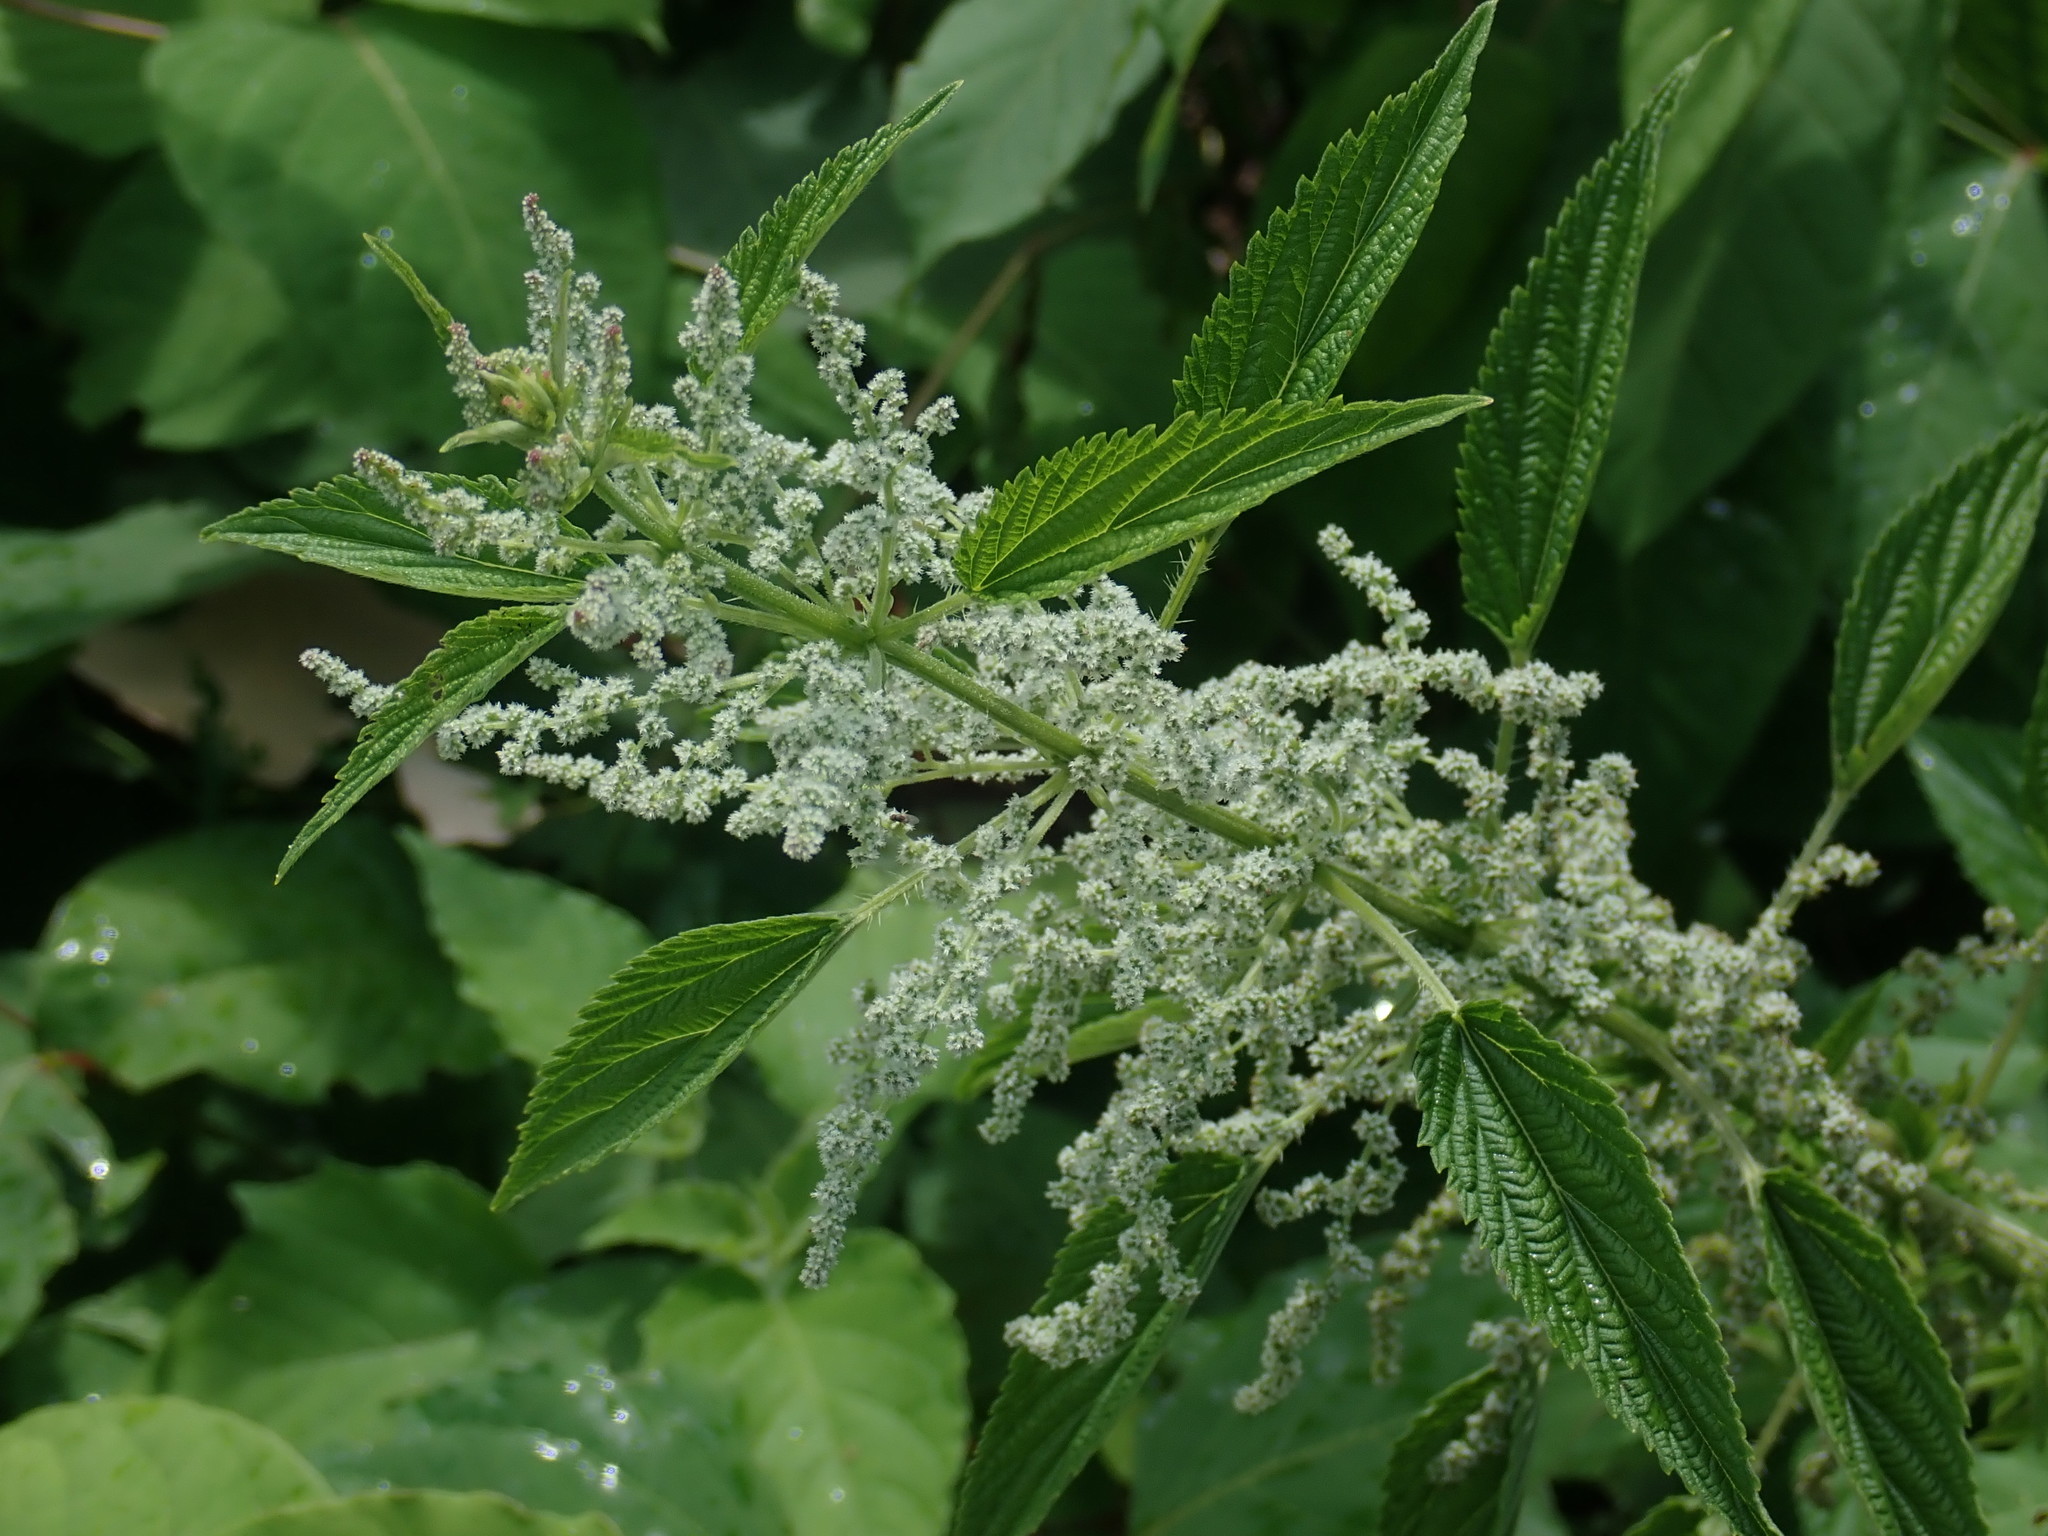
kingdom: Plantae
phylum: Tracheophyta
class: Magnoliopsida
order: Rosales
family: Urticaceae
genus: Urtica
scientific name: Urtica dioica
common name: Common nettle
